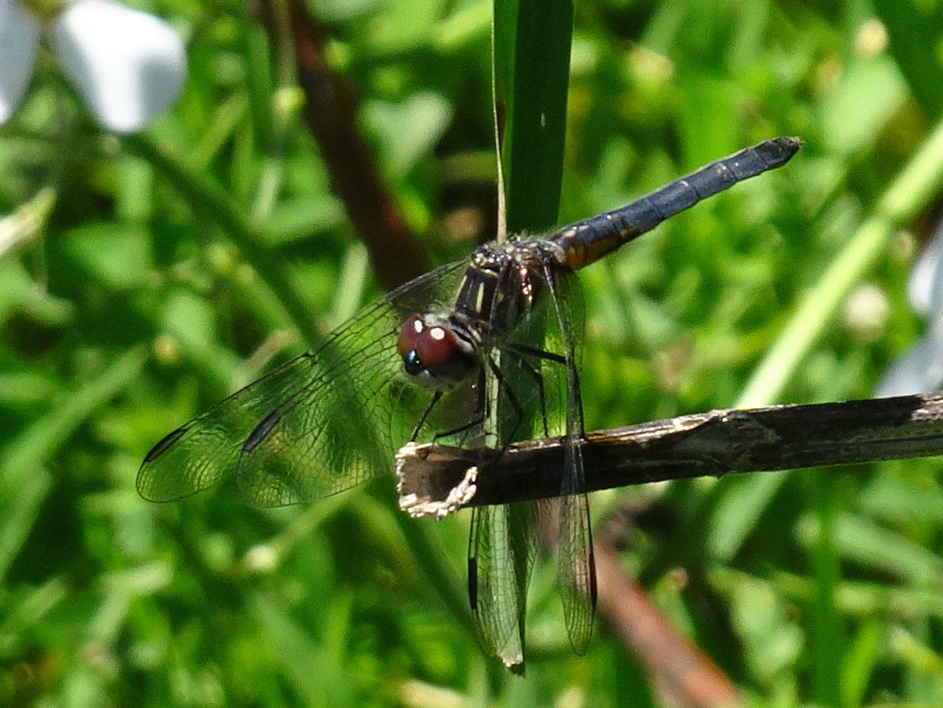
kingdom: Animalia
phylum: Arthropoda
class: Insecta
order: Odonata
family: Libellulidae
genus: Pachydiplax
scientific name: Pachydiplax longipennis
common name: Blue dasher
